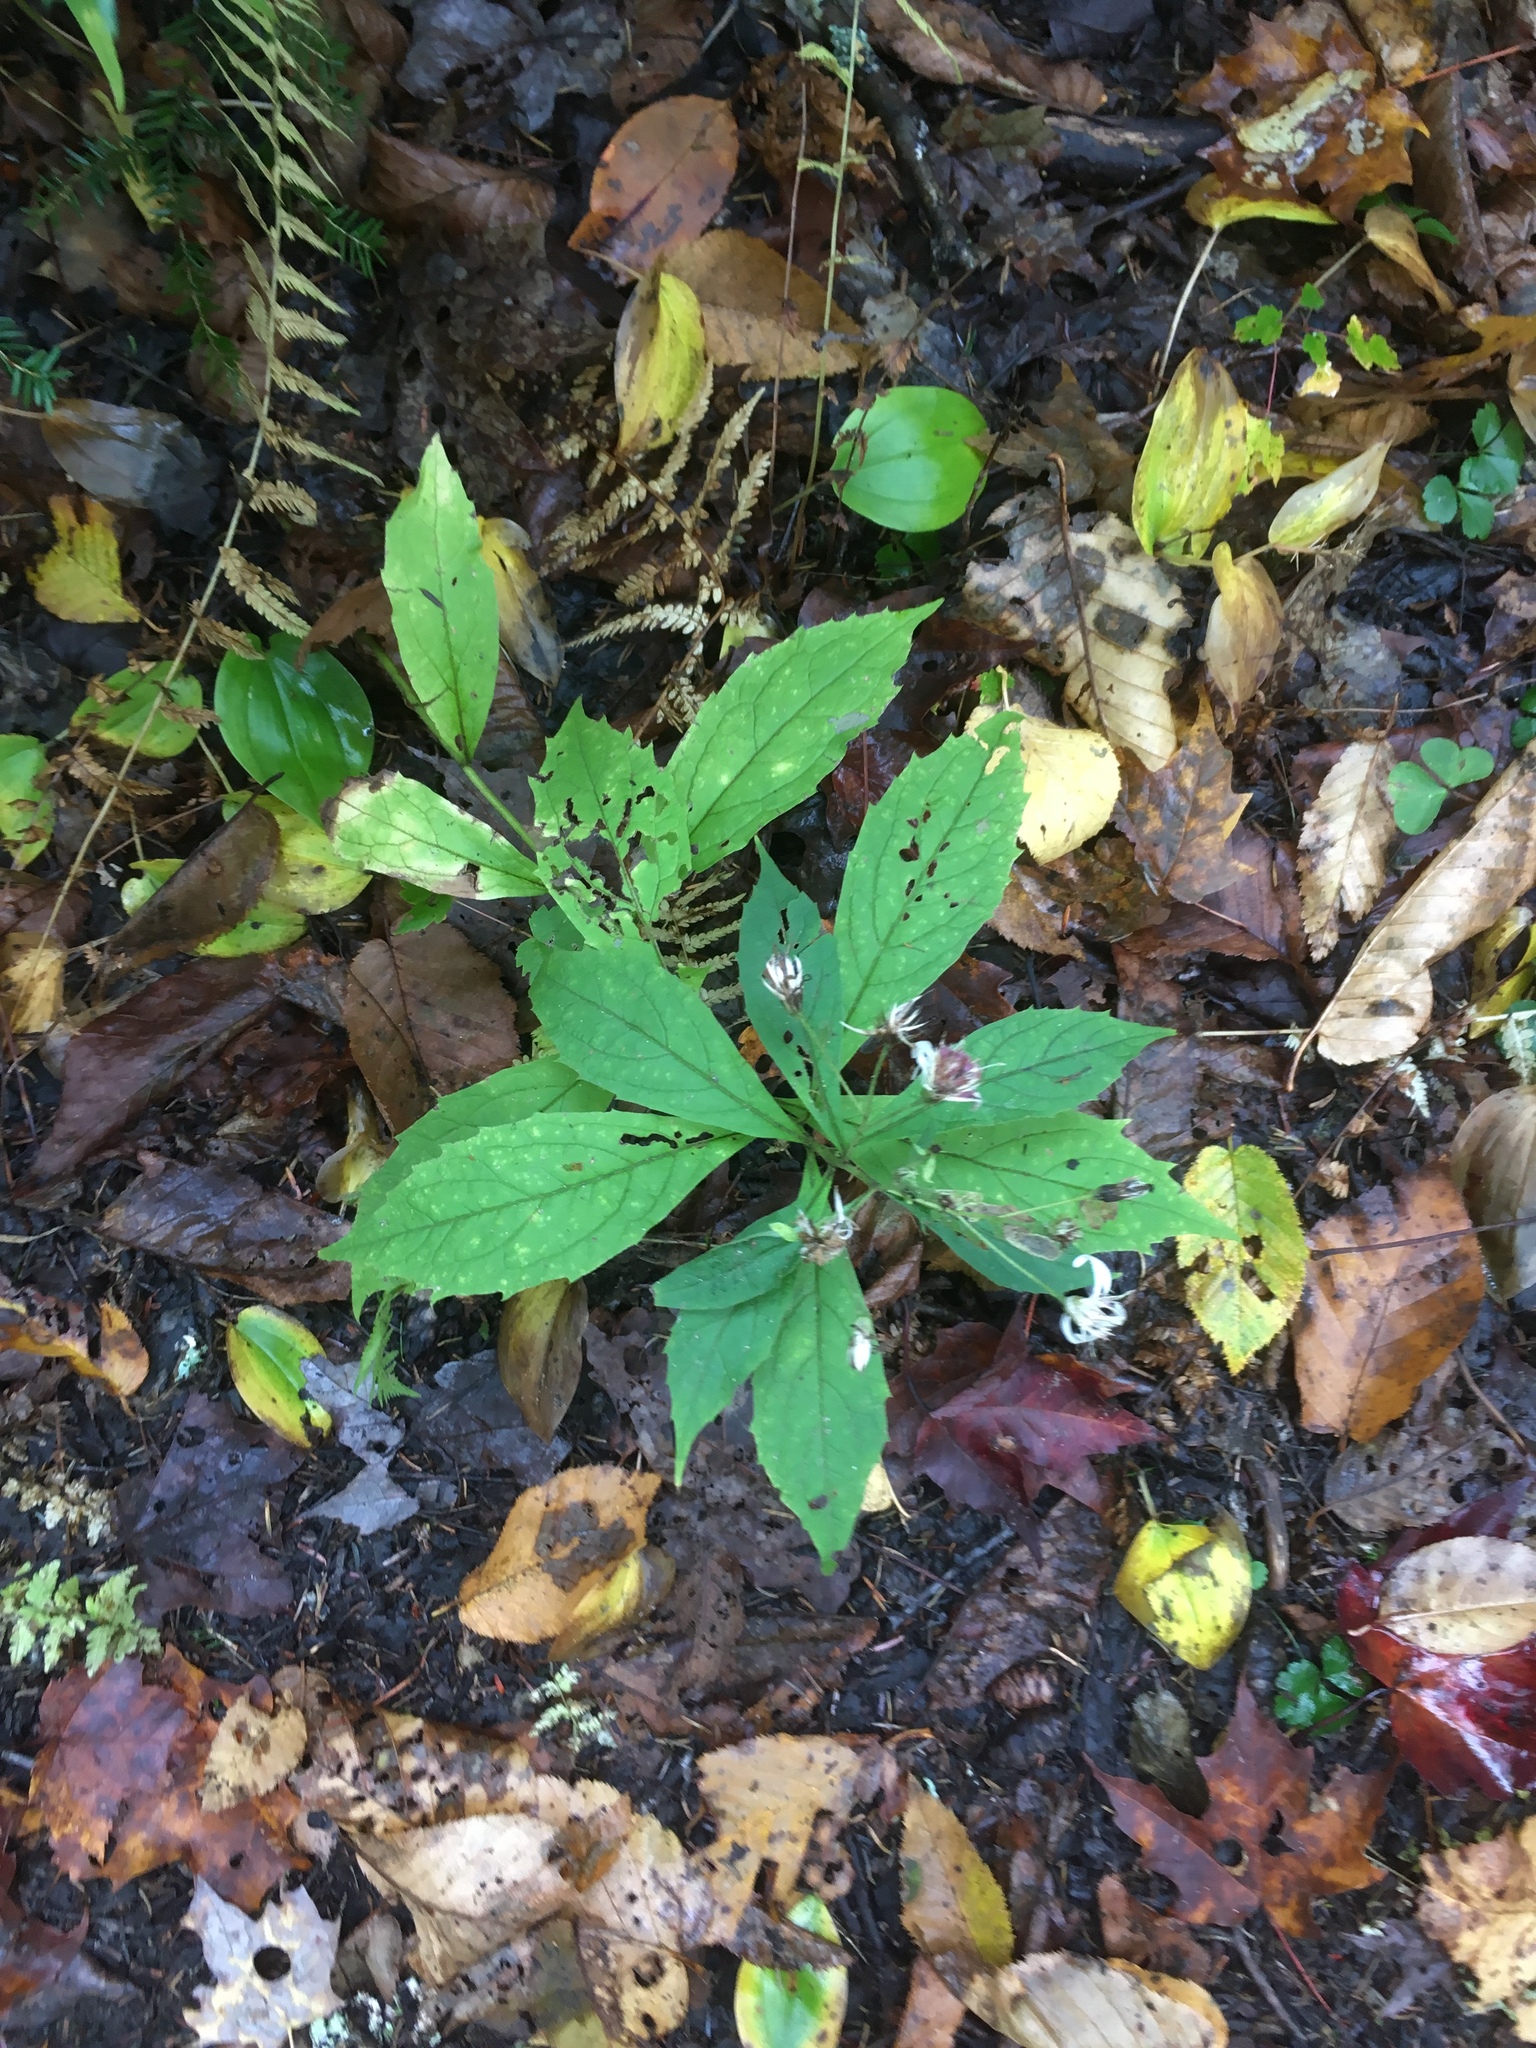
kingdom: Plantae
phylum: Tracheophyta
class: Magnoliopsida
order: Asterales
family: Asteraceae
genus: Oclemena
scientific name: Oclemena acuminata
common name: Mountain aster
